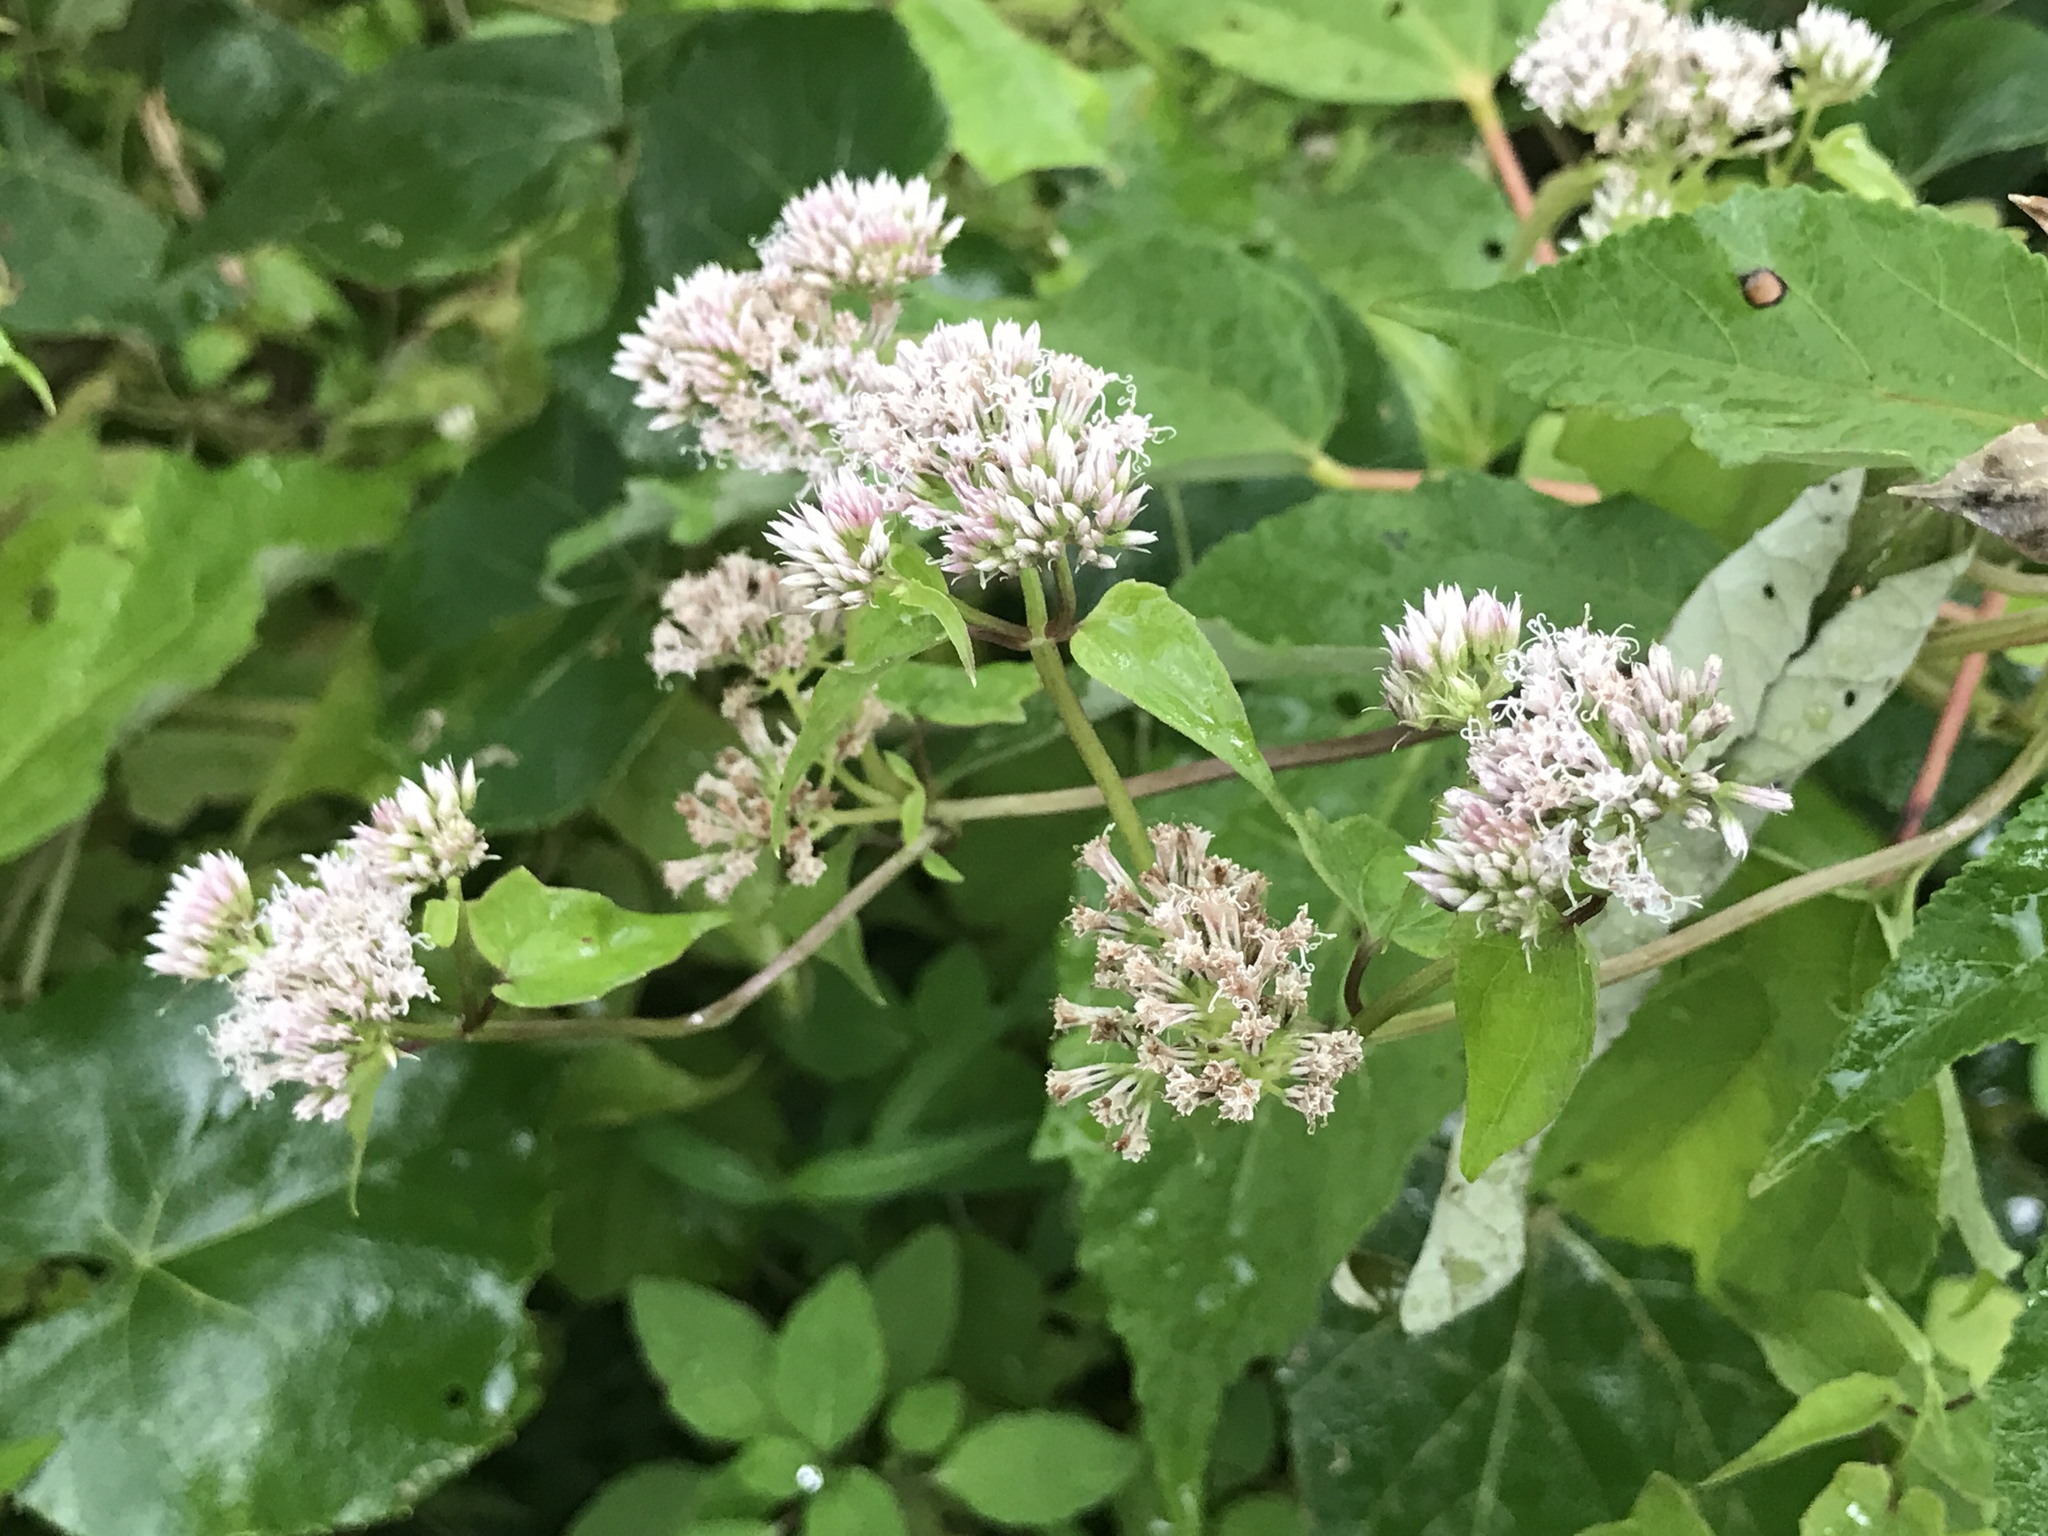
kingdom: Plantae
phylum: Tracheophyta
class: Magnoliopsida
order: Asterales
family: Asteraceae
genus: Mikania
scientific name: Mikania scandens
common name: Climbing hempvine
